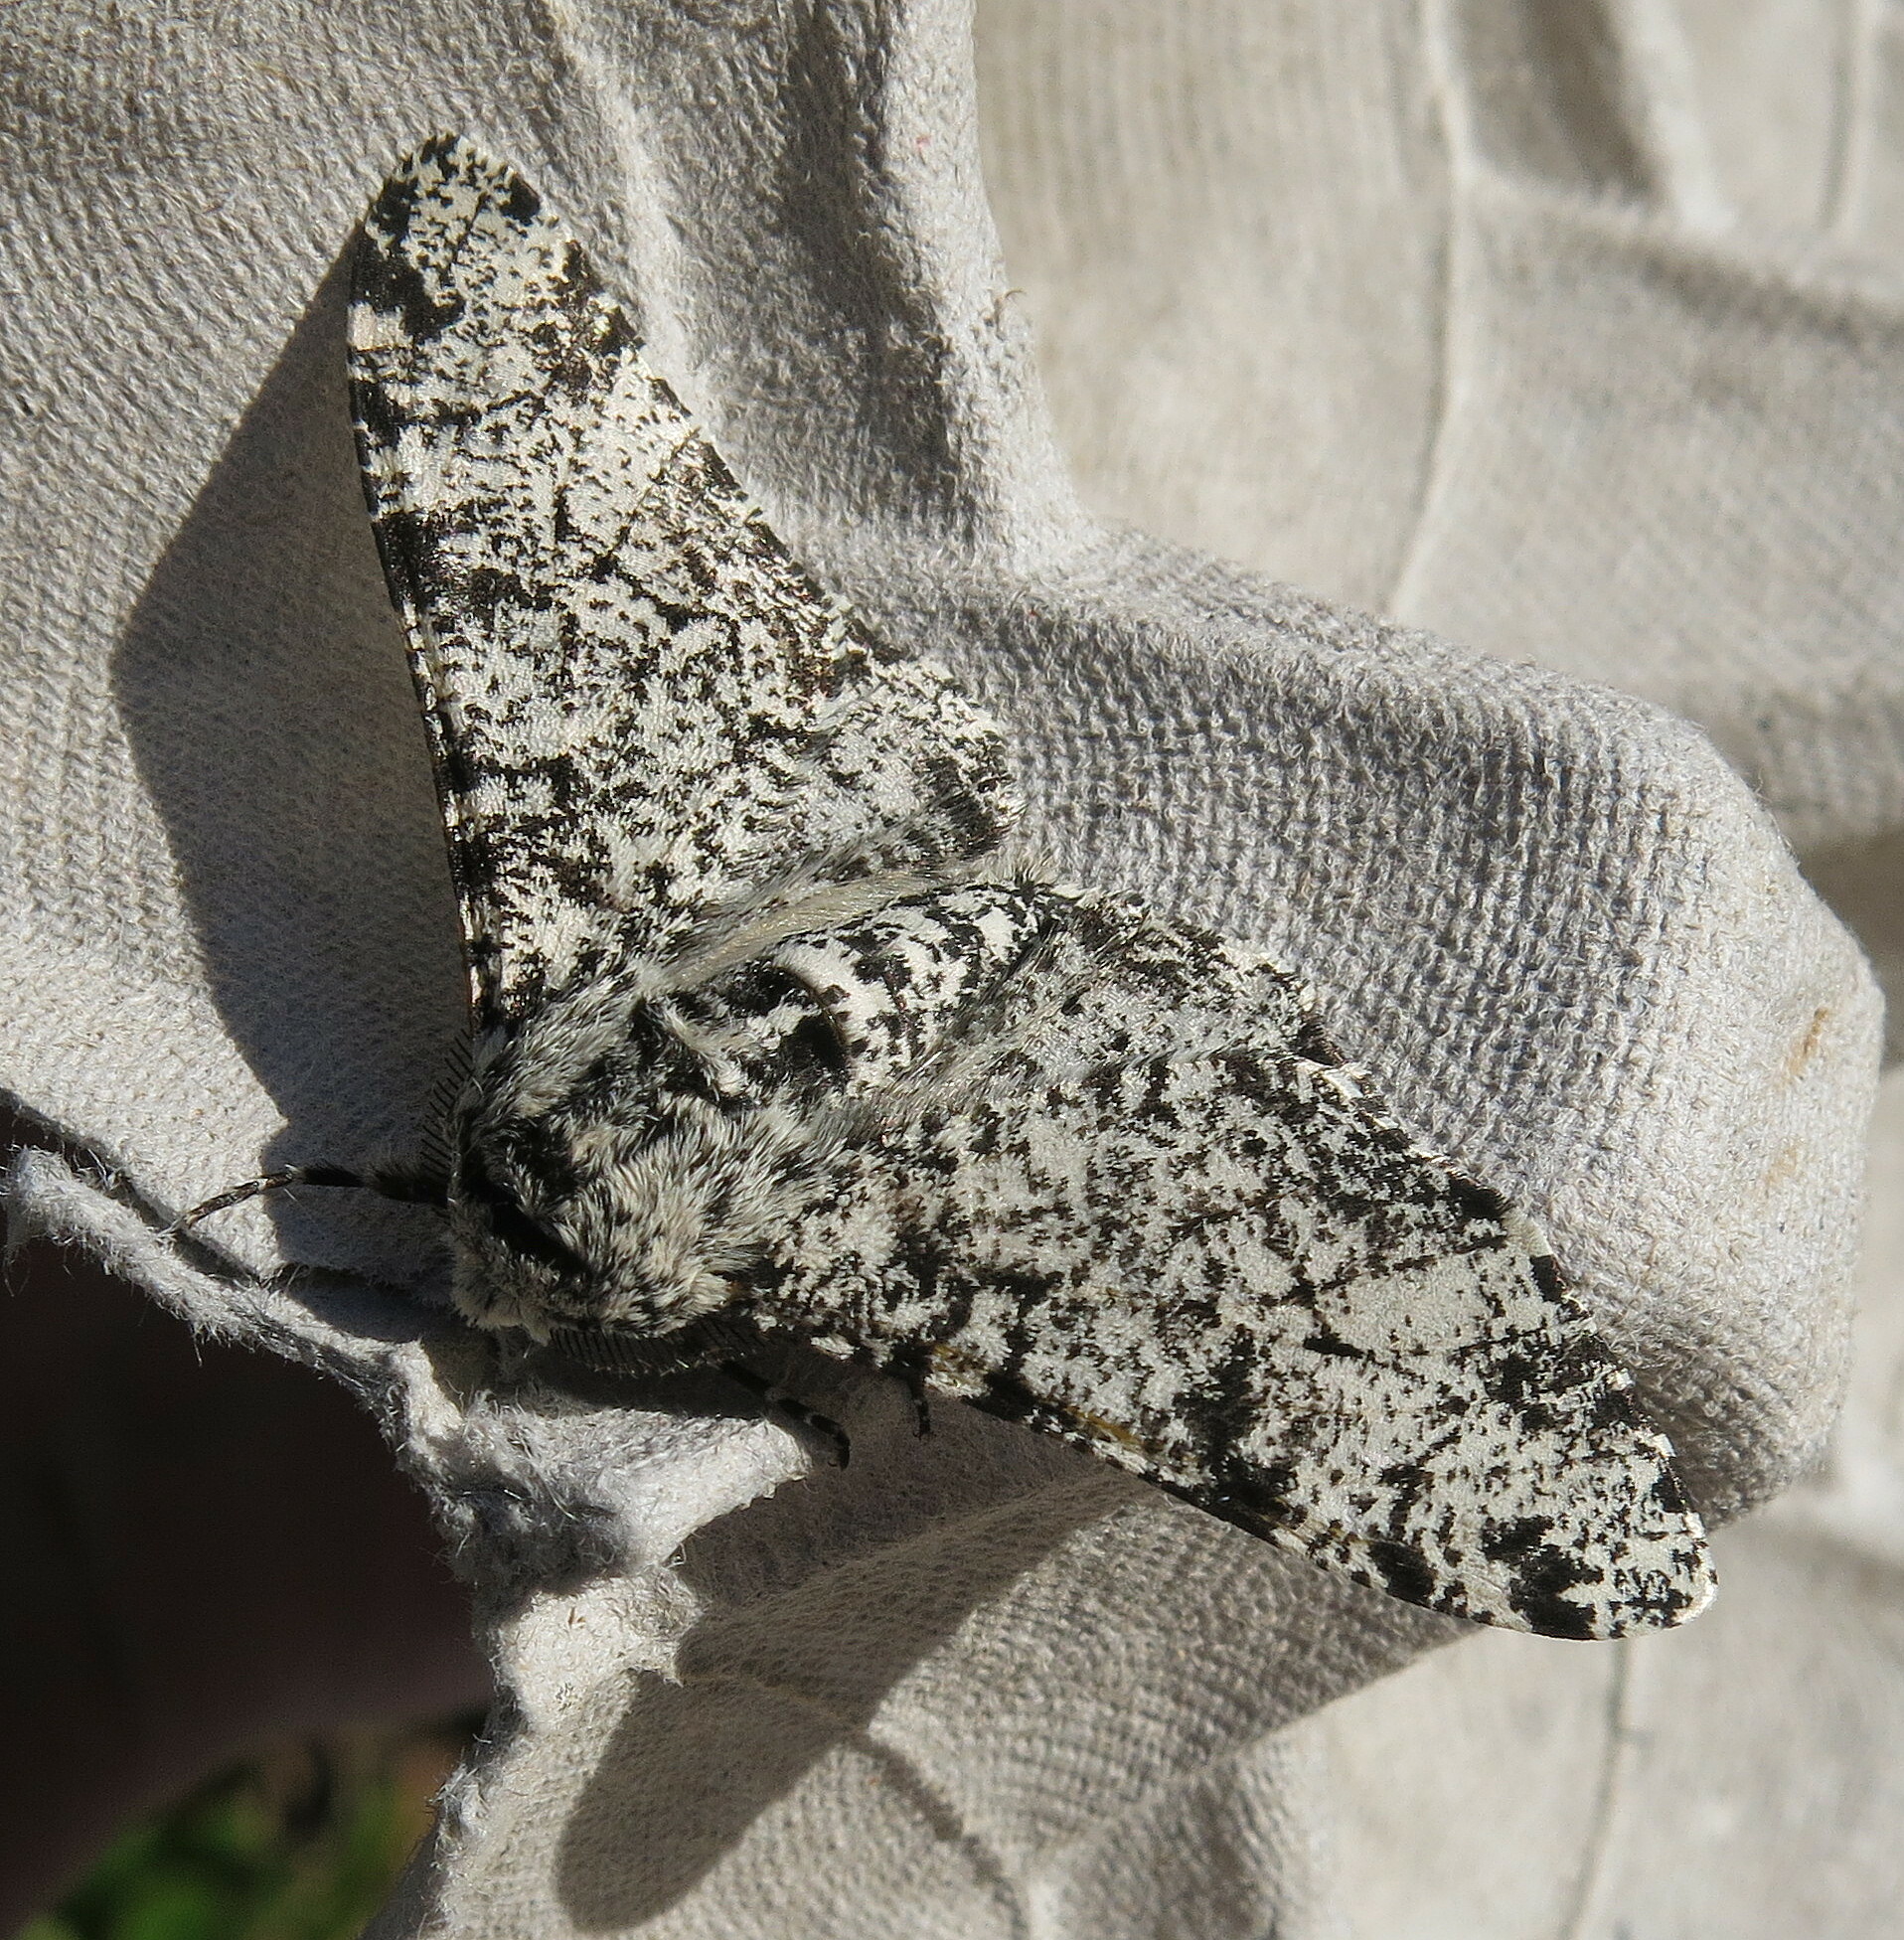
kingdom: Animalia
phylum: Arthropoda
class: Insecta
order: Lepidoptera
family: Geometridae
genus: Biston
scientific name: Biston betularia
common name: Peppered moth
